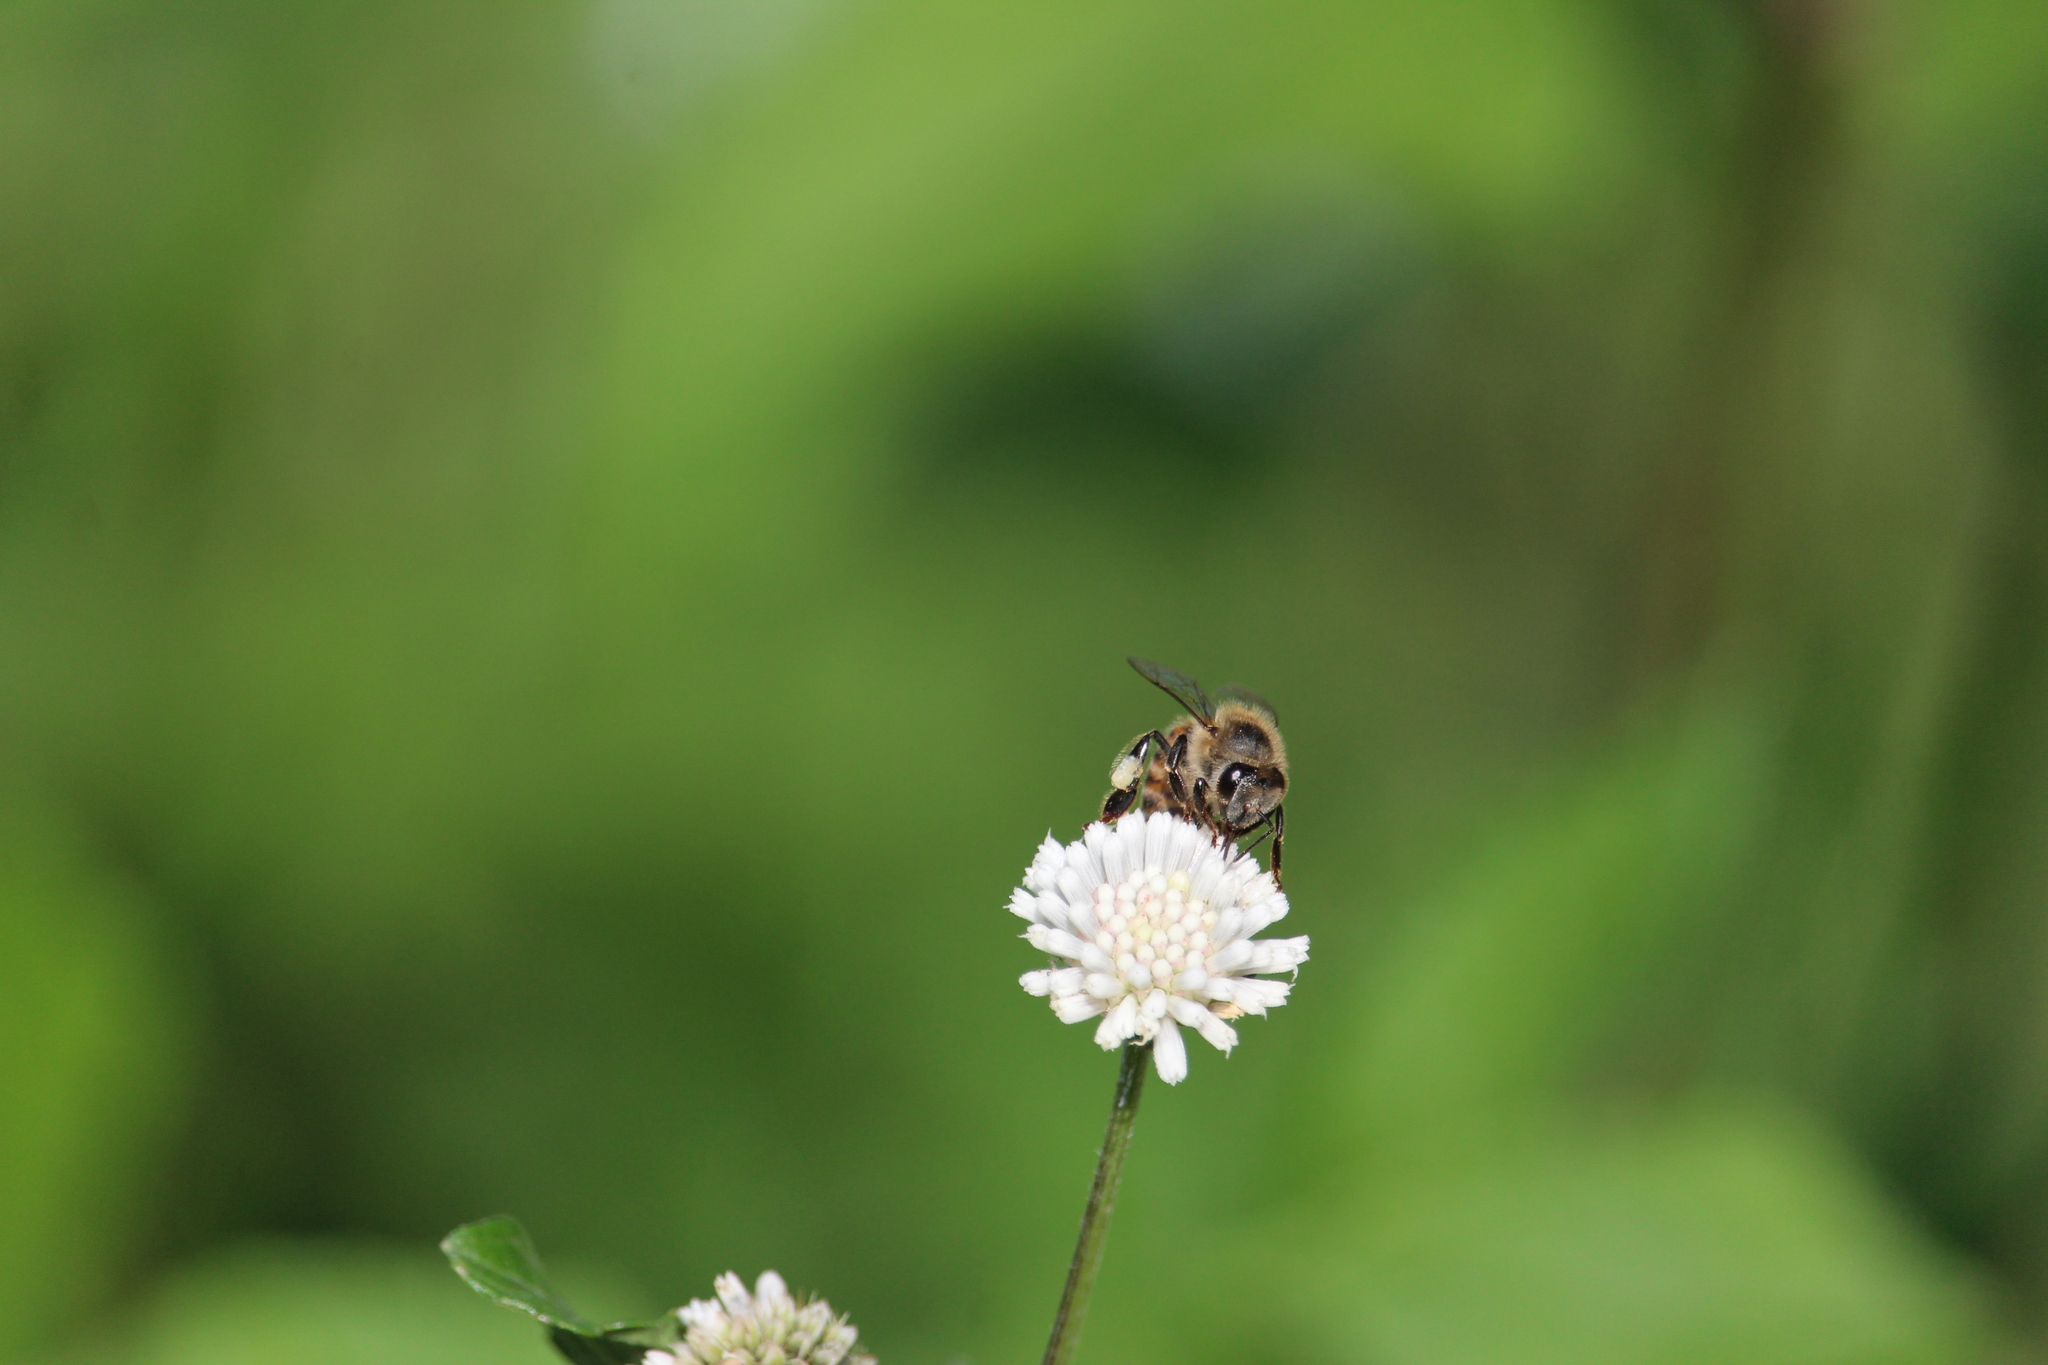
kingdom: Animalia
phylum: Arthropoda
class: Insecta
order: Hymenoptera
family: Apidae
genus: Apis
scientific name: Apis mellifera
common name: Honey bee
